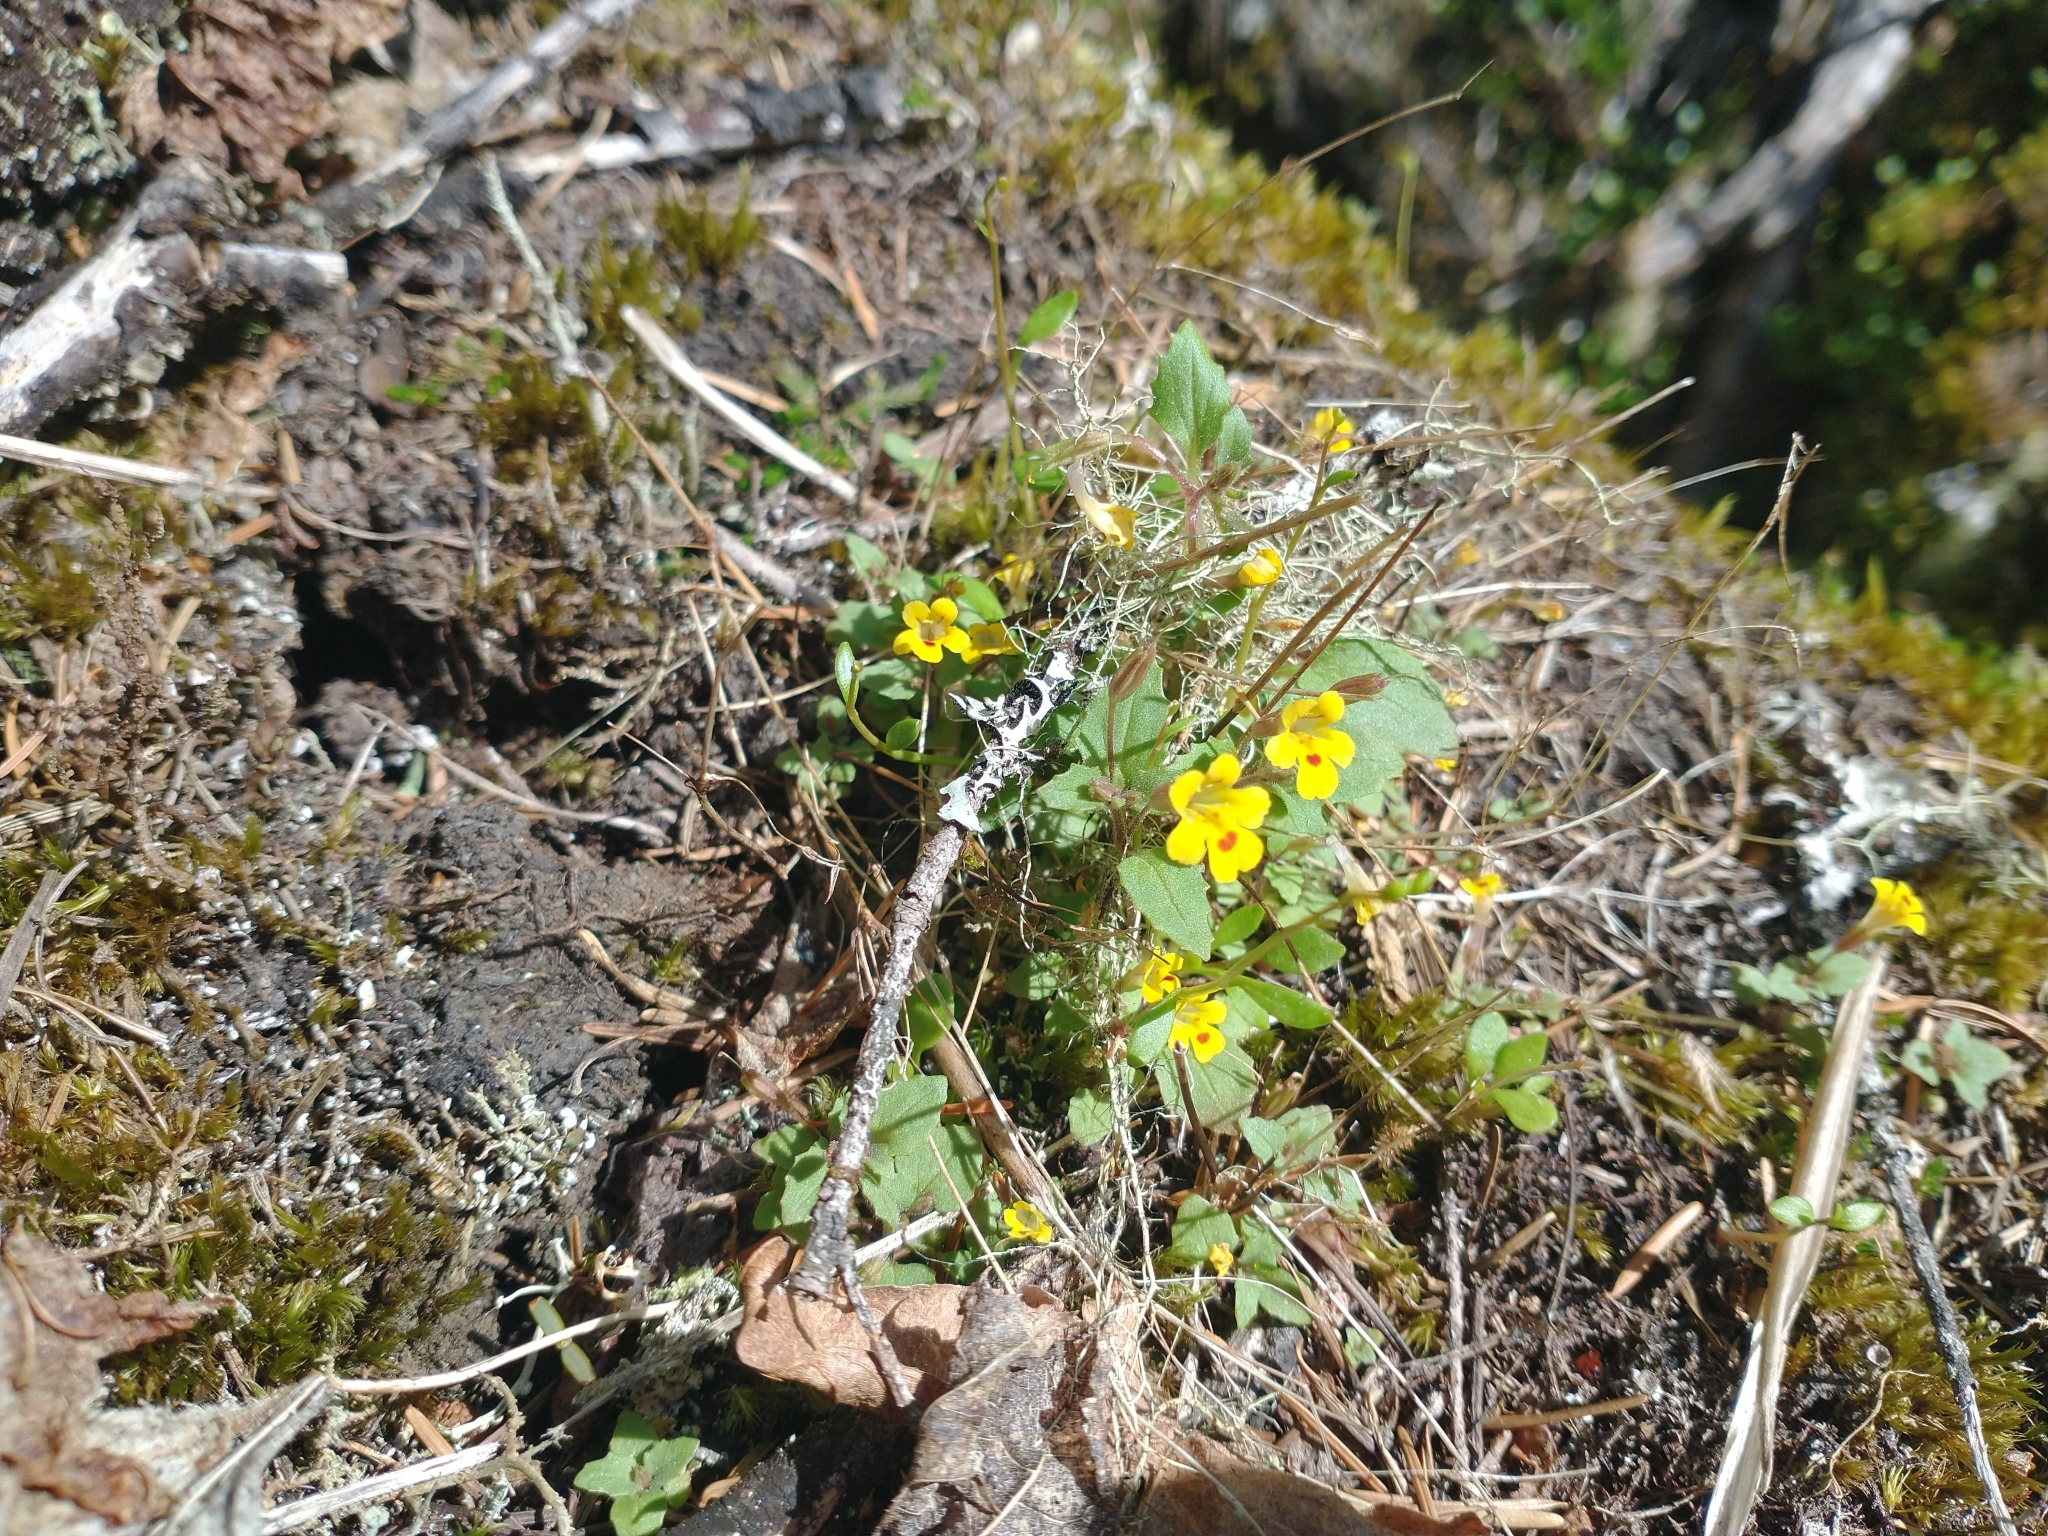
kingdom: Plantae
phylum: Tracheophyta
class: Magnoliopsida
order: Lamiales
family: Phrymaceae
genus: Erythranthe
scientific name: Erythranthe alsinoides
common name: Chickweed monkeyflower
